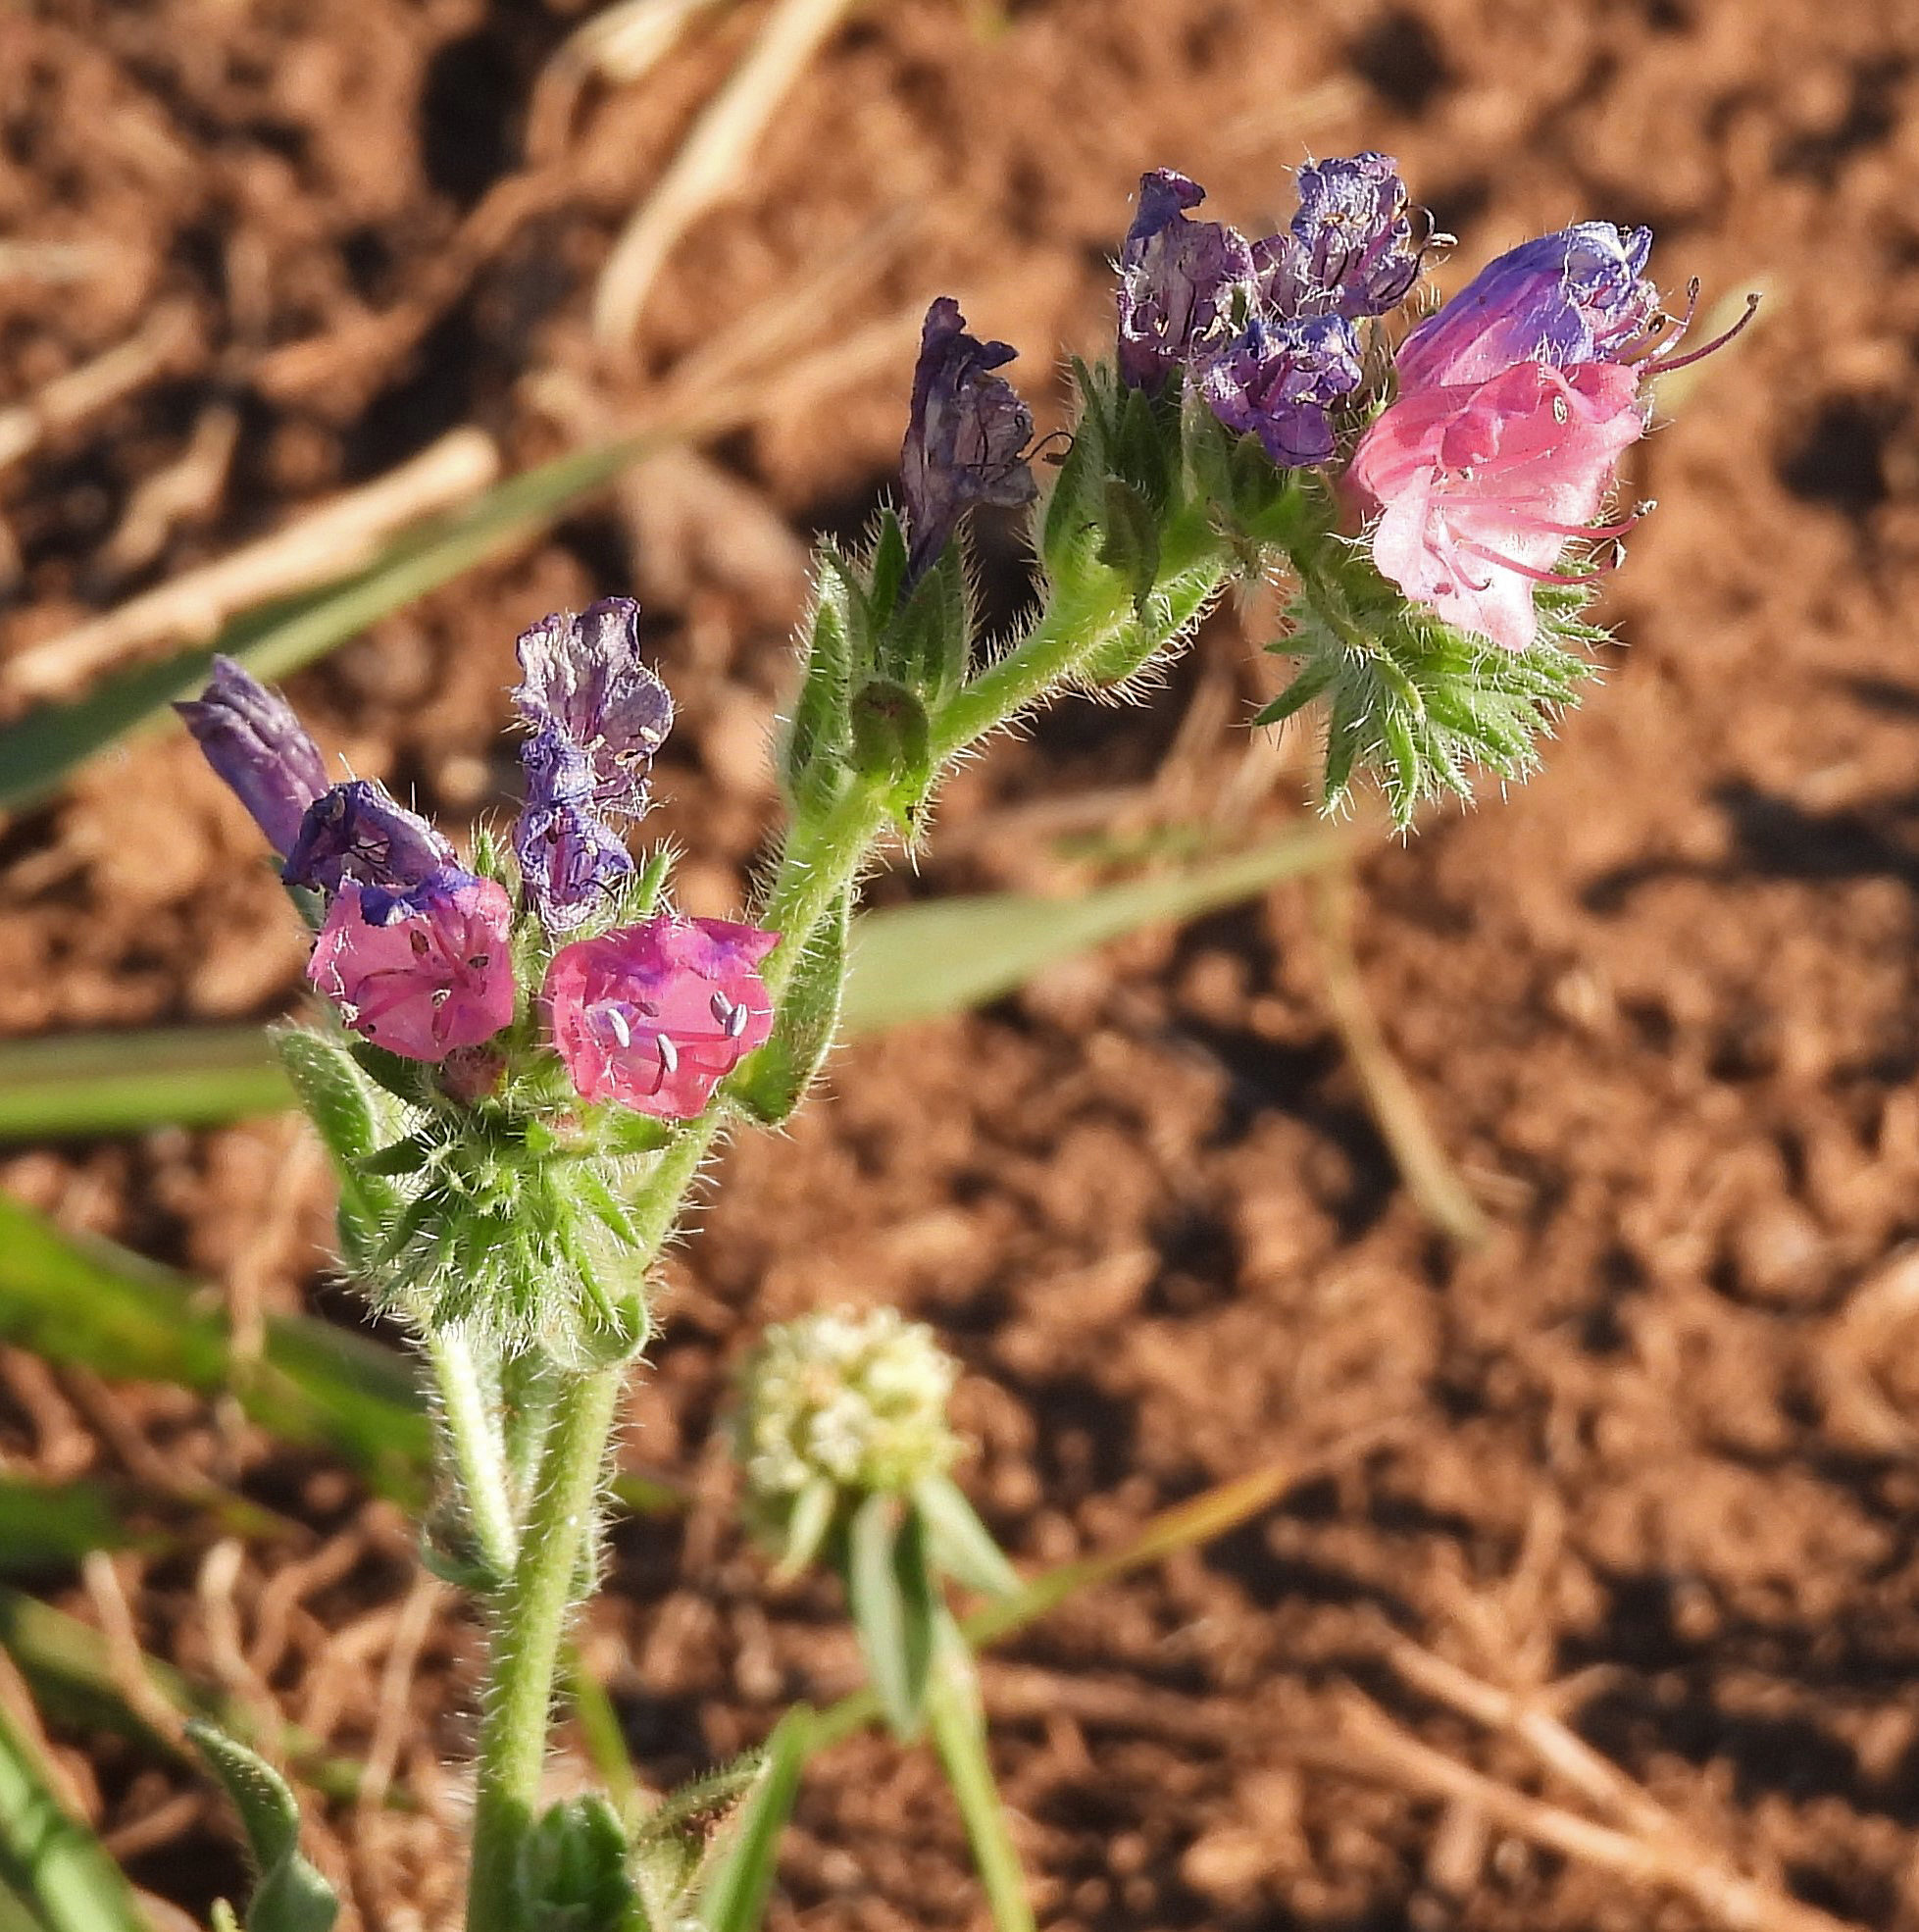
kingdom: Plantae
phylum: Tracheophyta
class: Magnoliopsida
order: Boraginales
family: Boraginaceae
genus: Echium
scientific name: Echium plantagineum
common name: Purple viper's-bugloss
